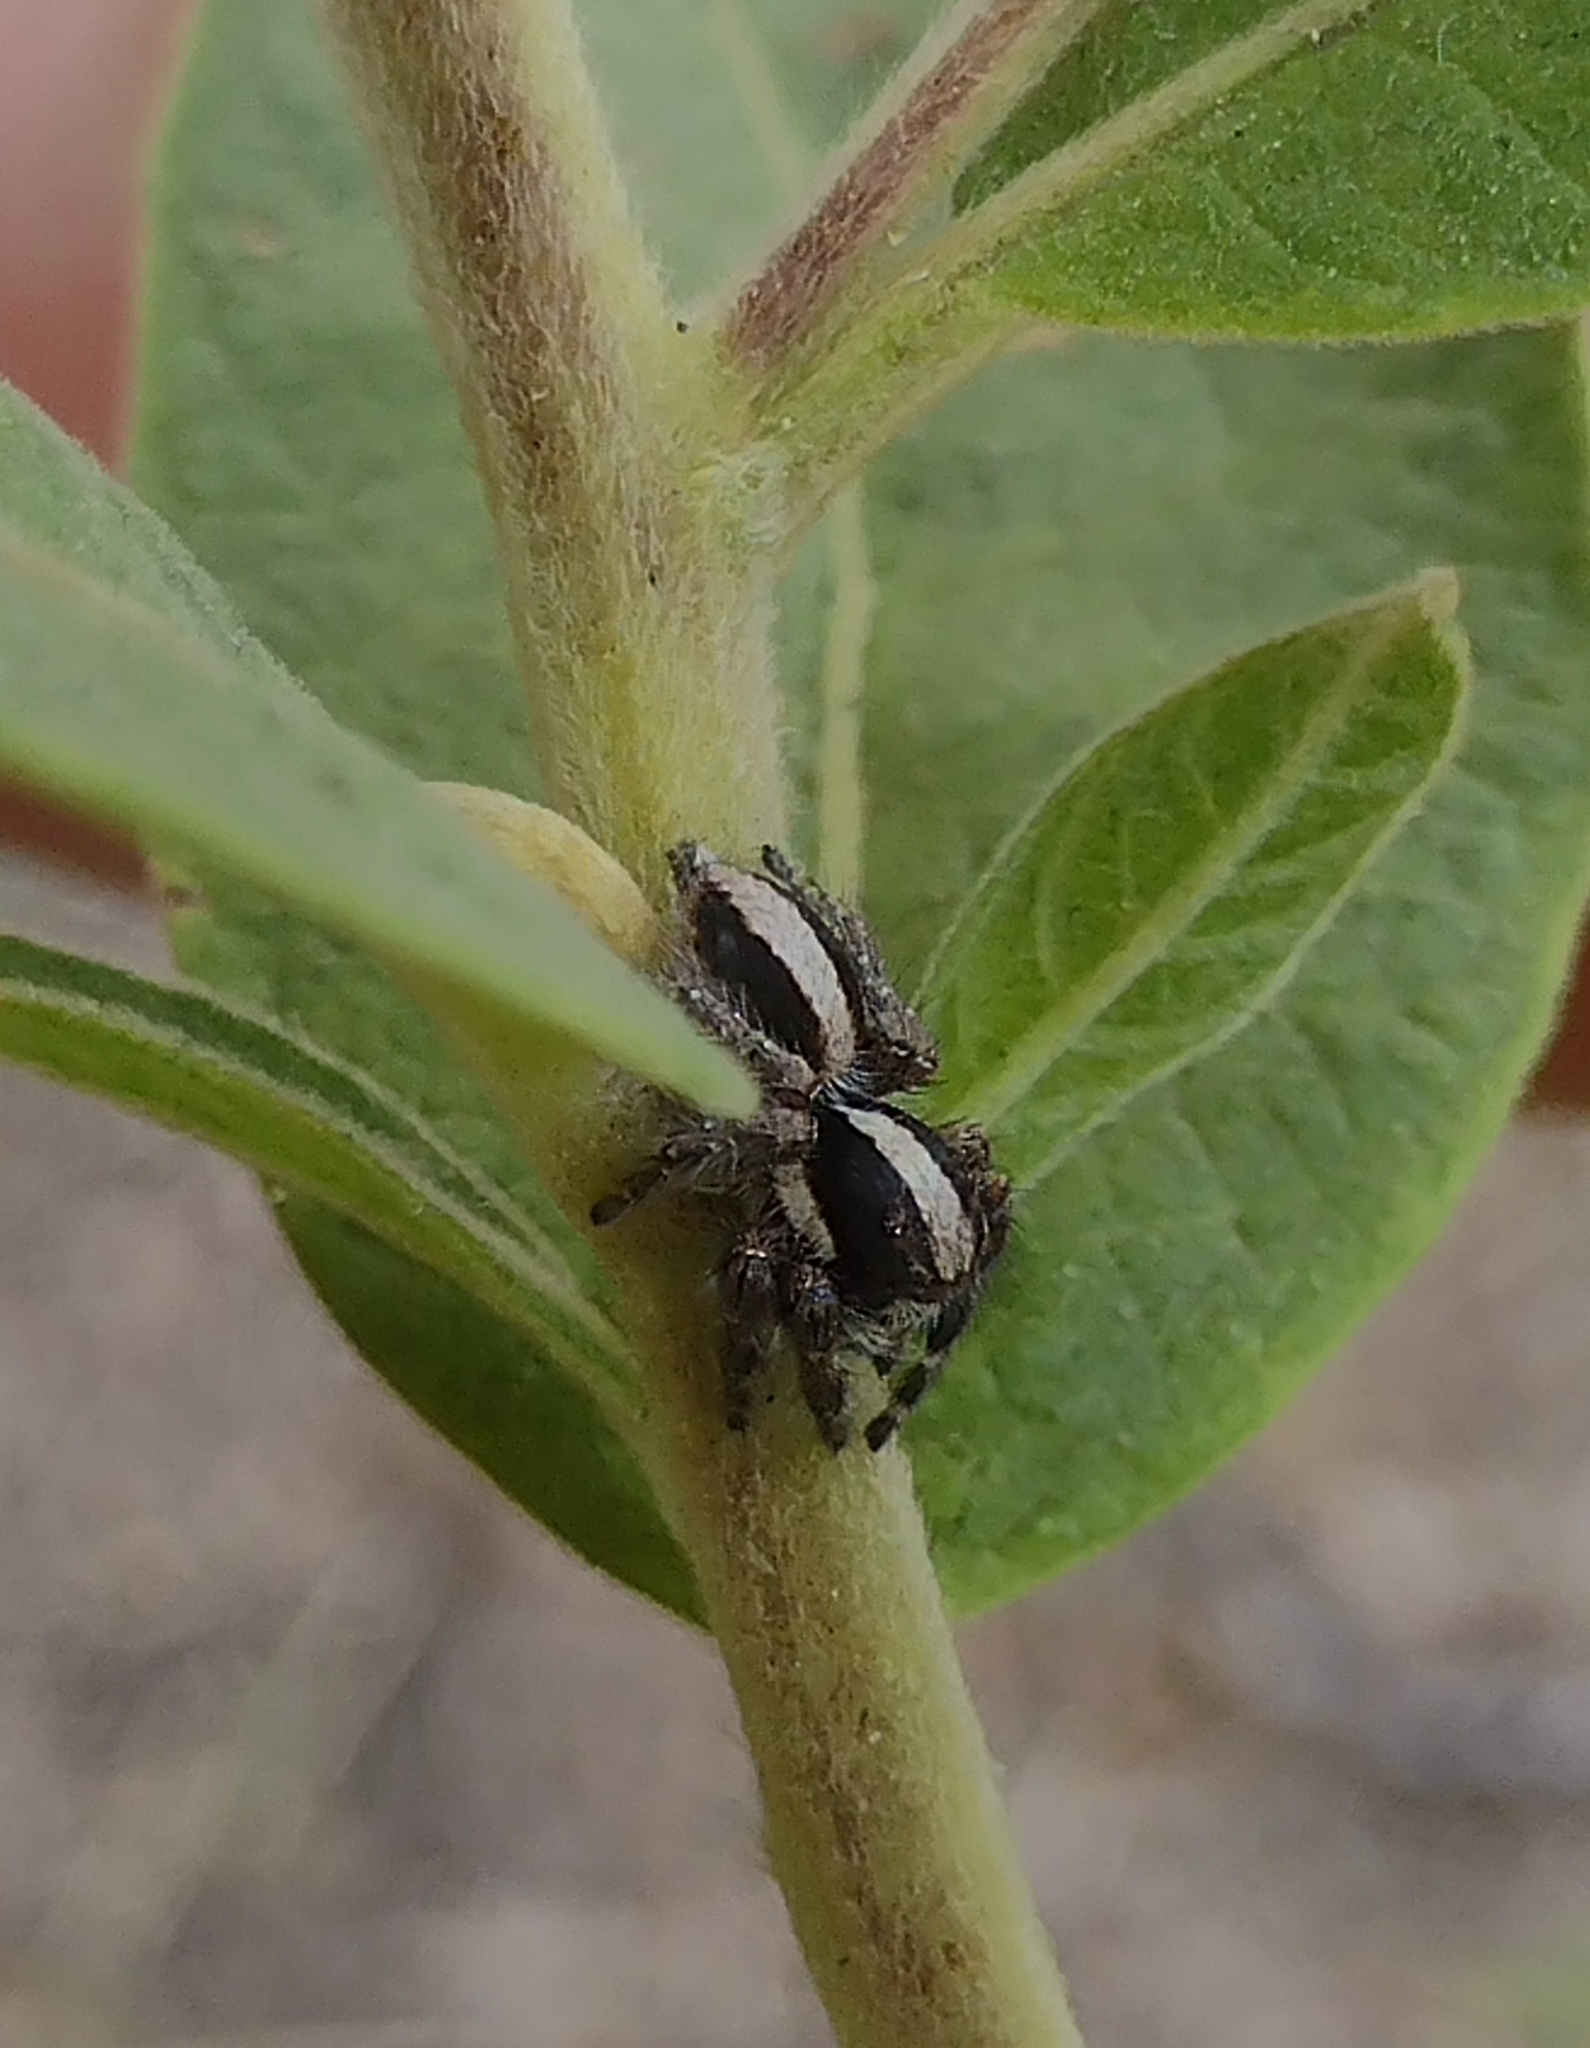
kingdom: Animalia
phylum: Arthropoda
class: Arachnida
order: Araneae
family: Salticidae
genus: Megafreya
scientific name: Megafreya sutrix
